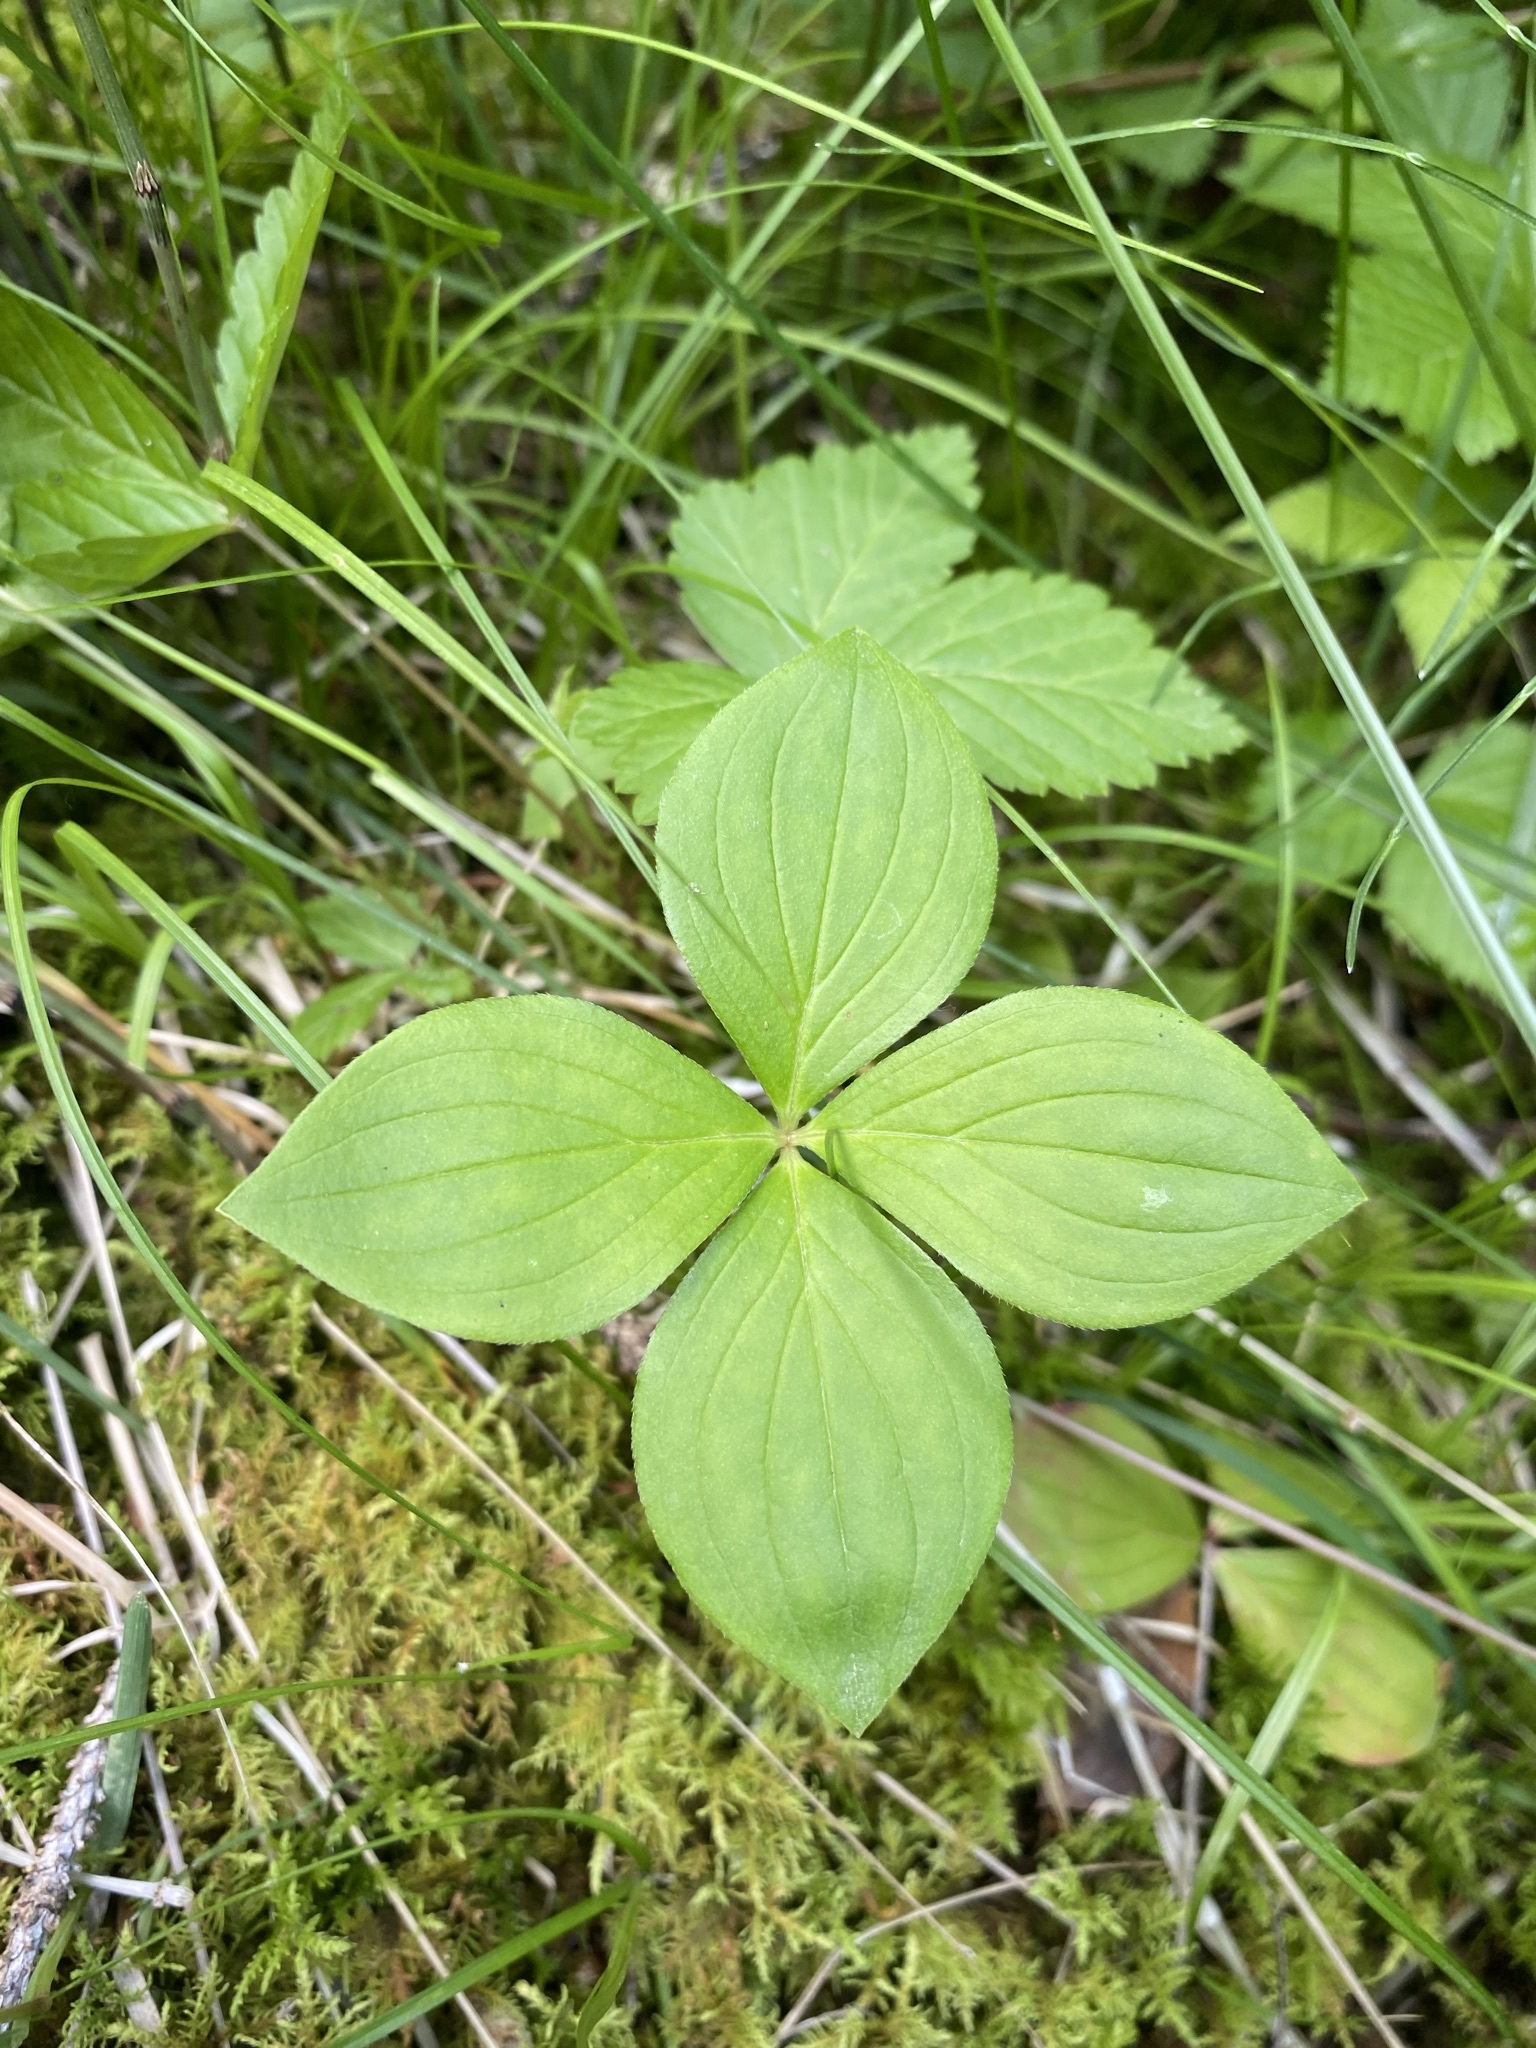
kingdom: Plantae
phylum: Tracheophyta
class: Magnoliopsida
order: Cornales
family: Cornaceae
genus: Cornus
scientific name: Cornus canadensis
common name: Creeping dogwood
